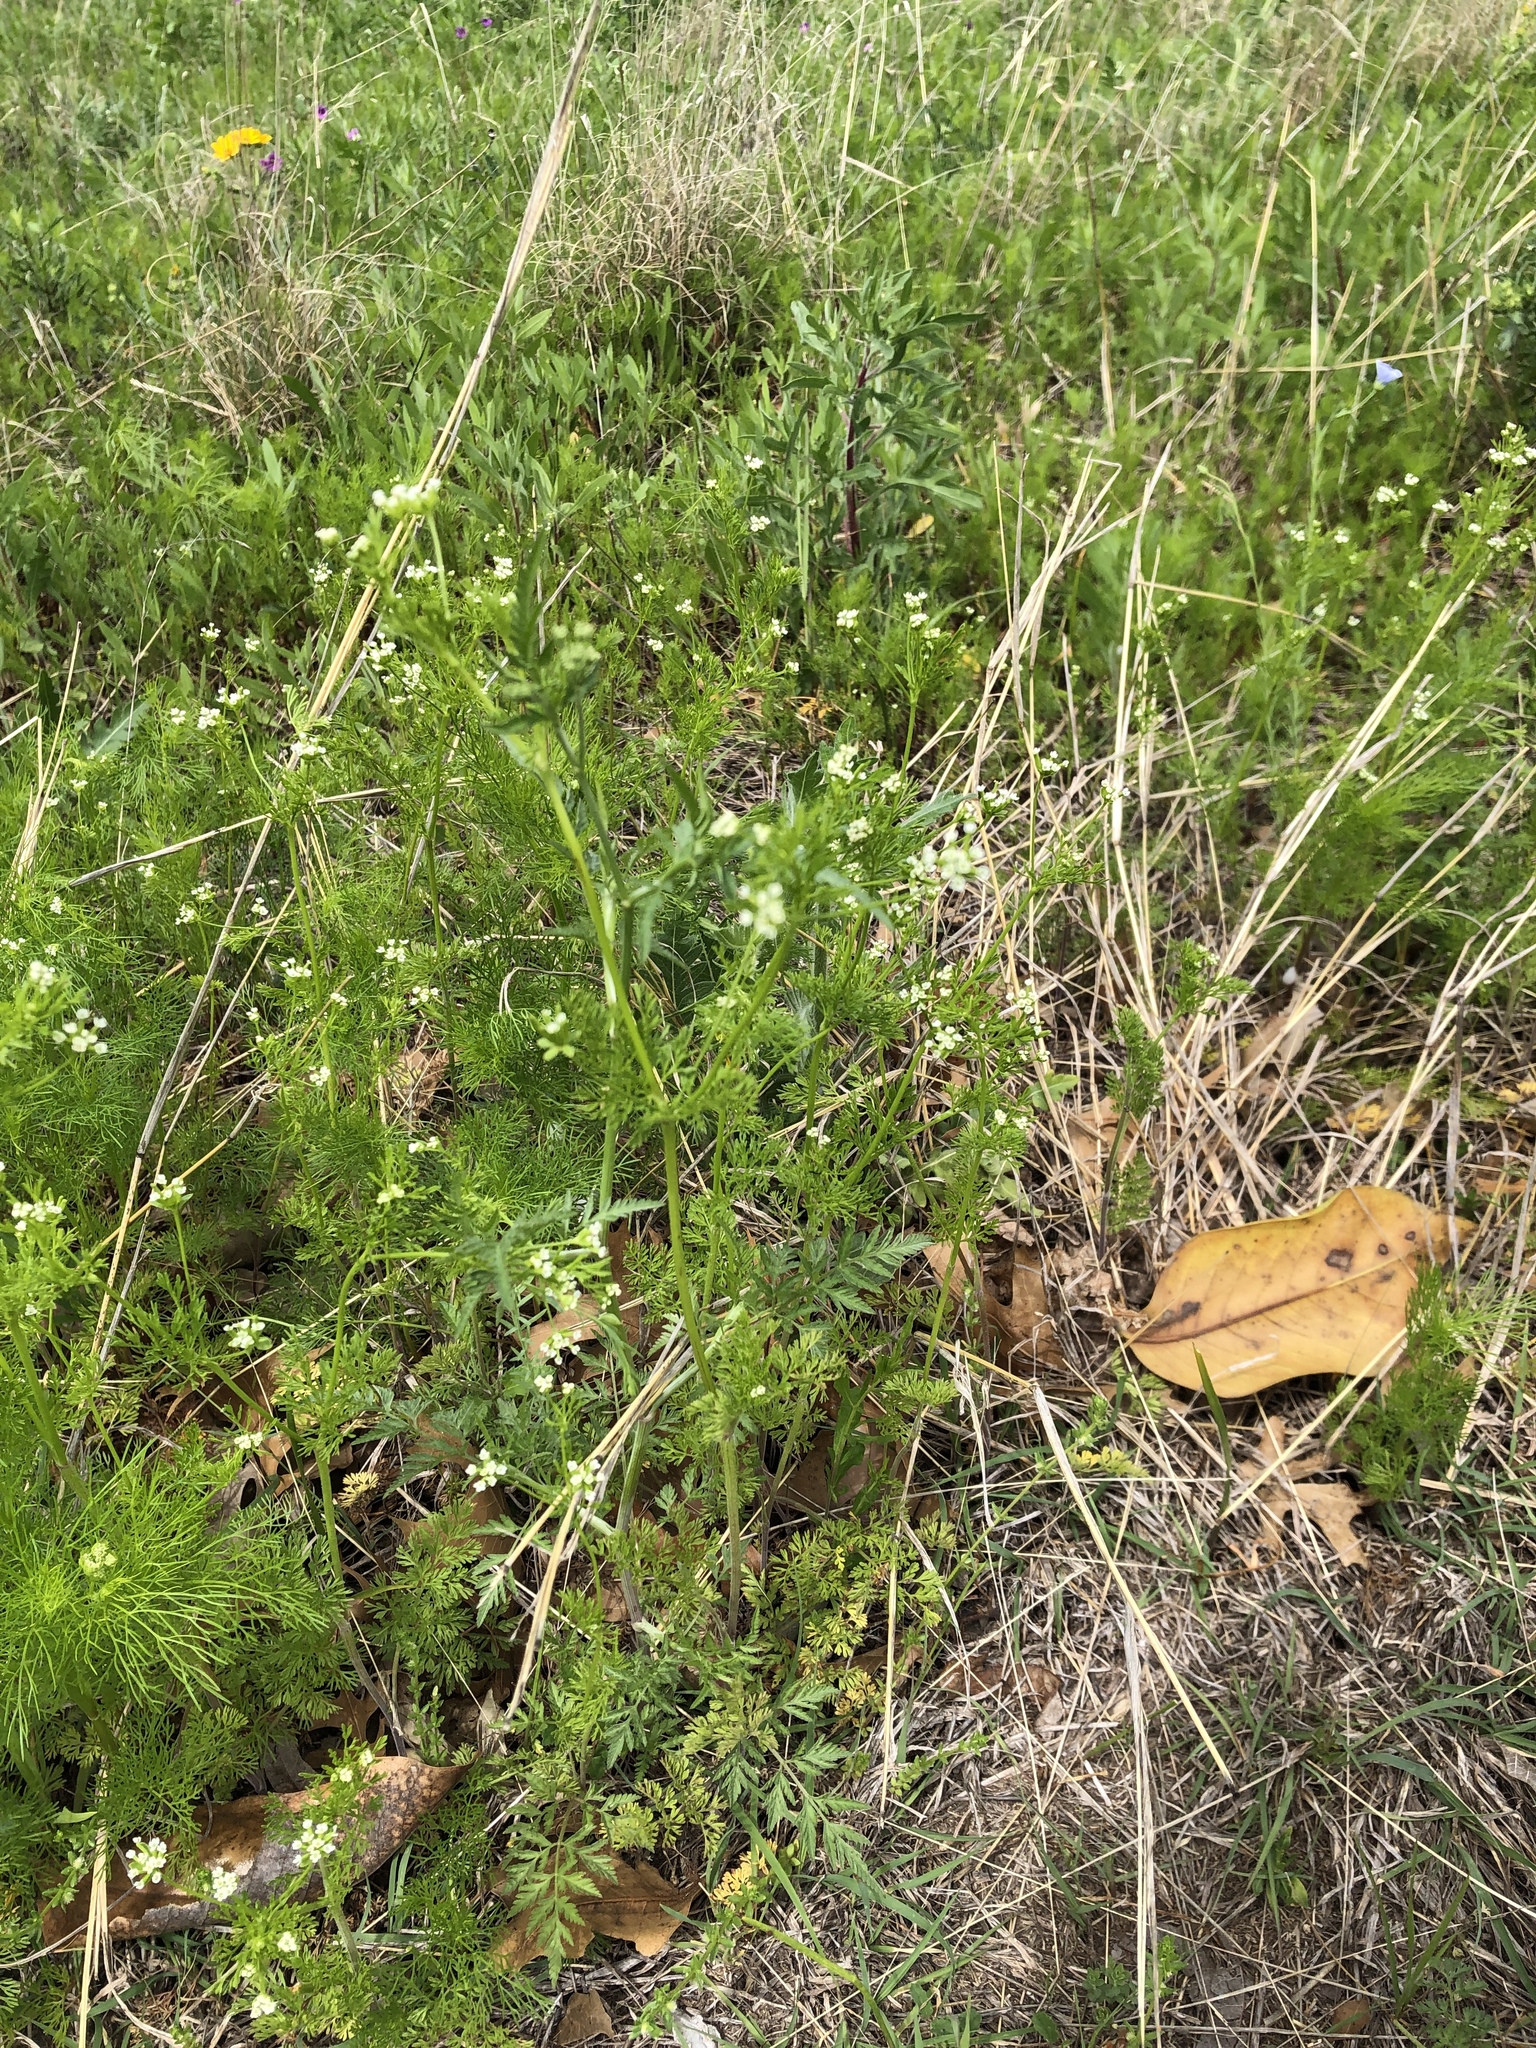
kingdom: Plantae
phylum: Tracheophyta
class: Magnoliopsida
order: Apiales
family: Apiaceae
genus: Chaerophyllum
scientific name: Chaerophyllum tainturieri
